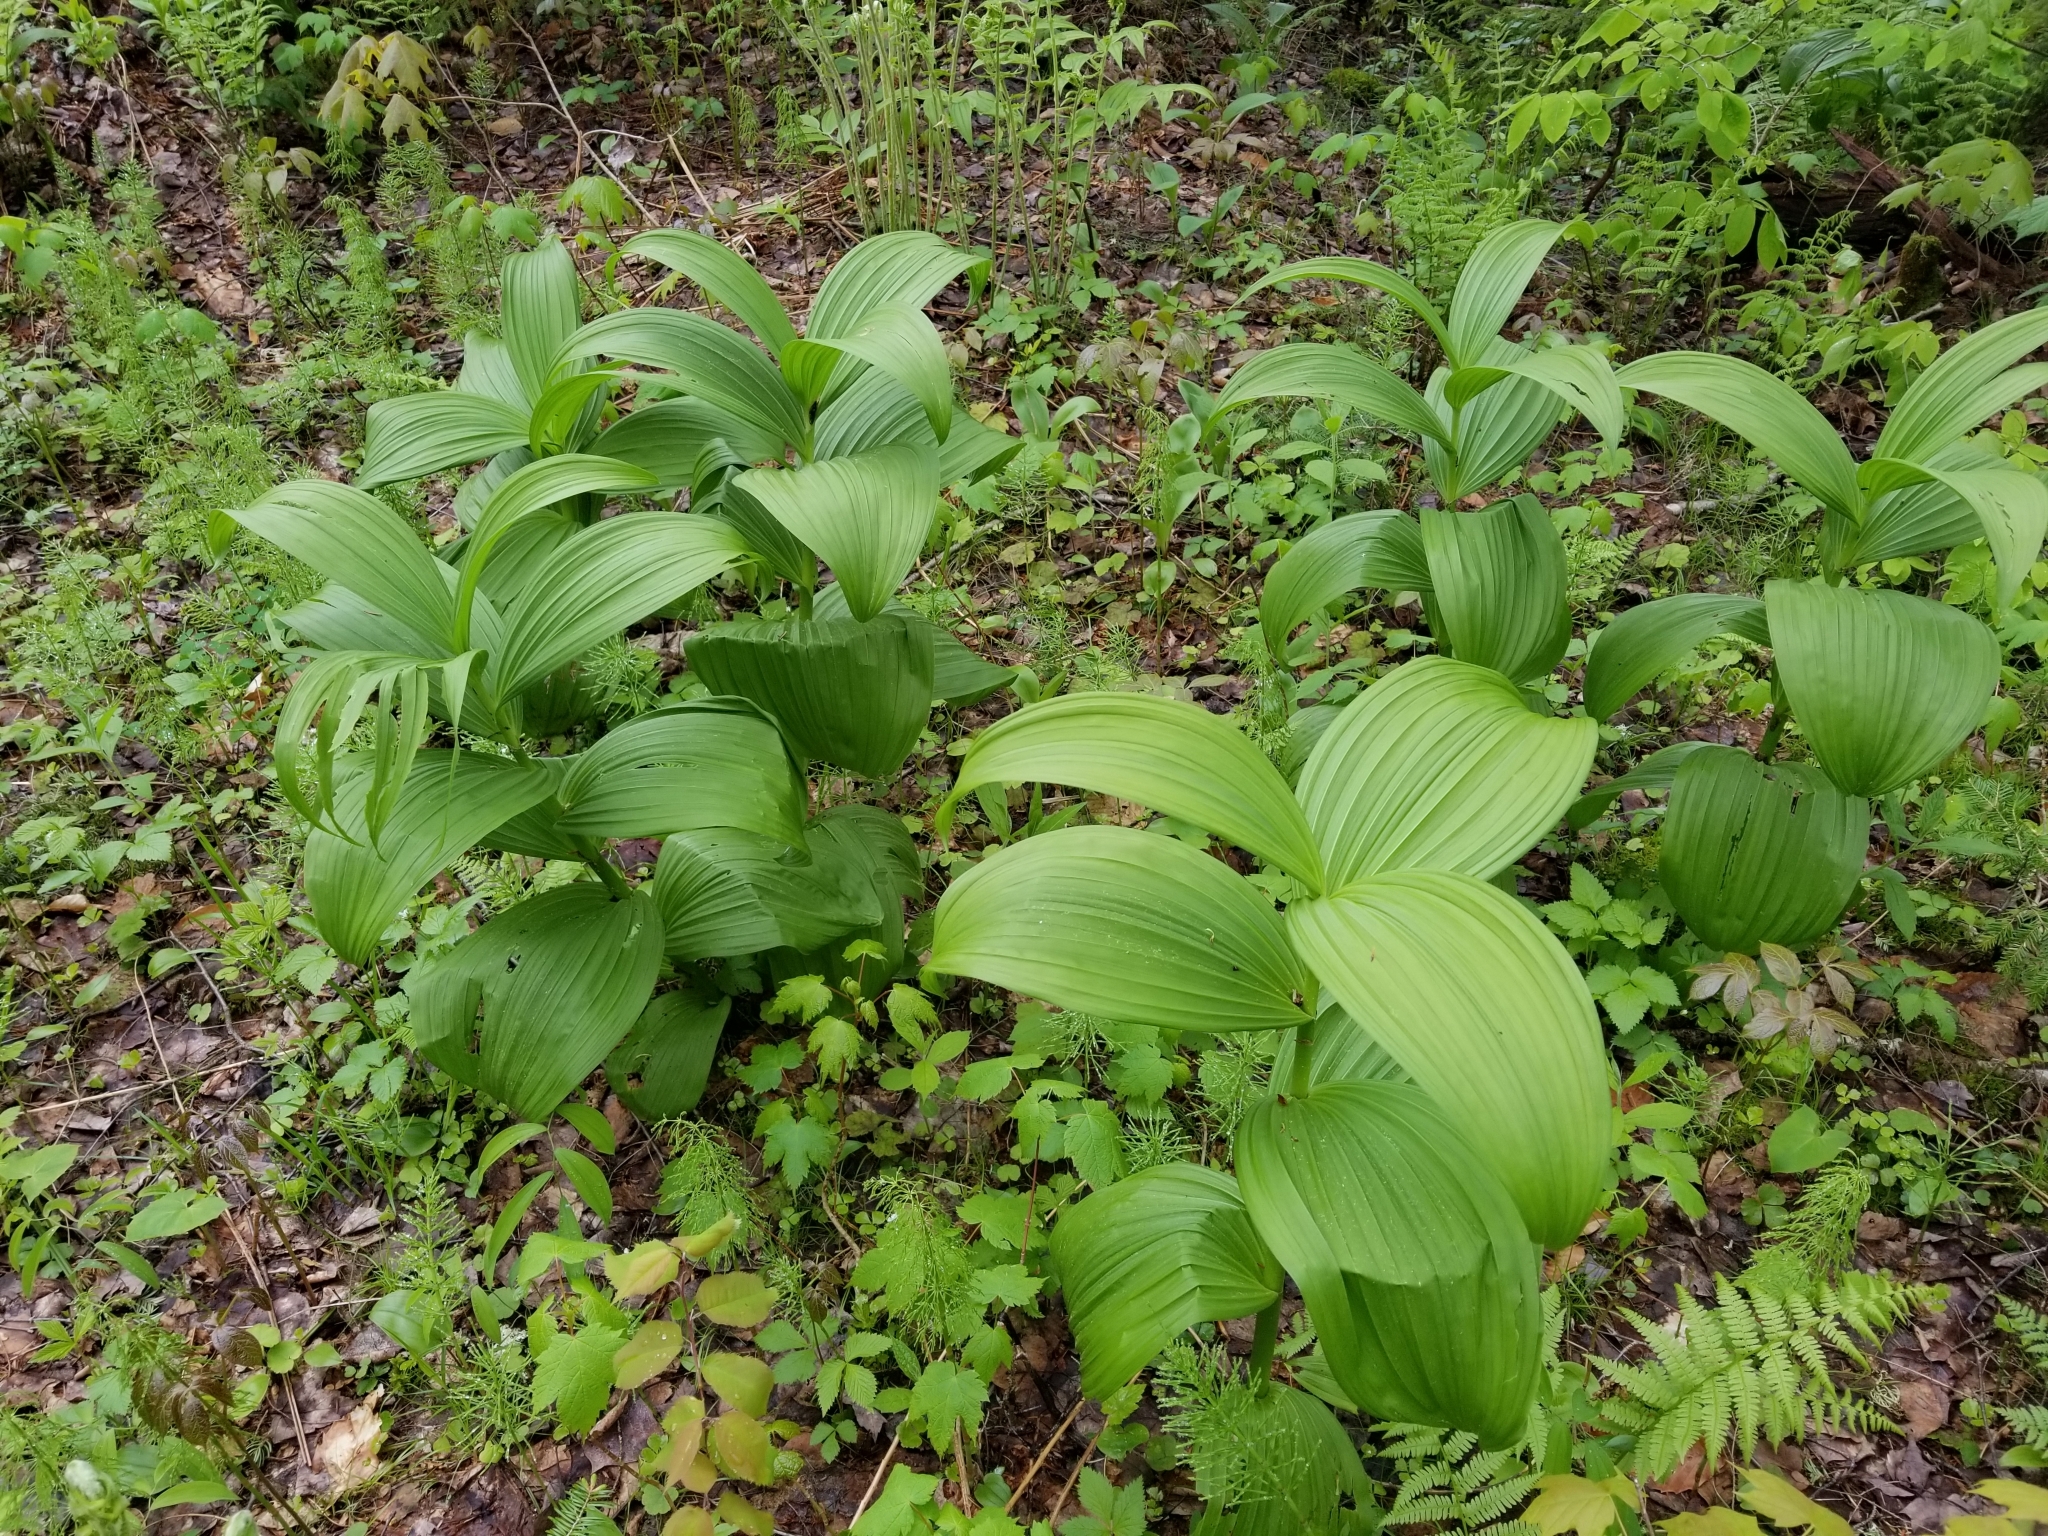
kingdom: Plantae
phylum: Tracheophyta
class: Liliopsida
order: Liliales
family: Melanthiaceae
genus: Veratrum
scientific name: Veratrum viride
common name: American false hellebore
